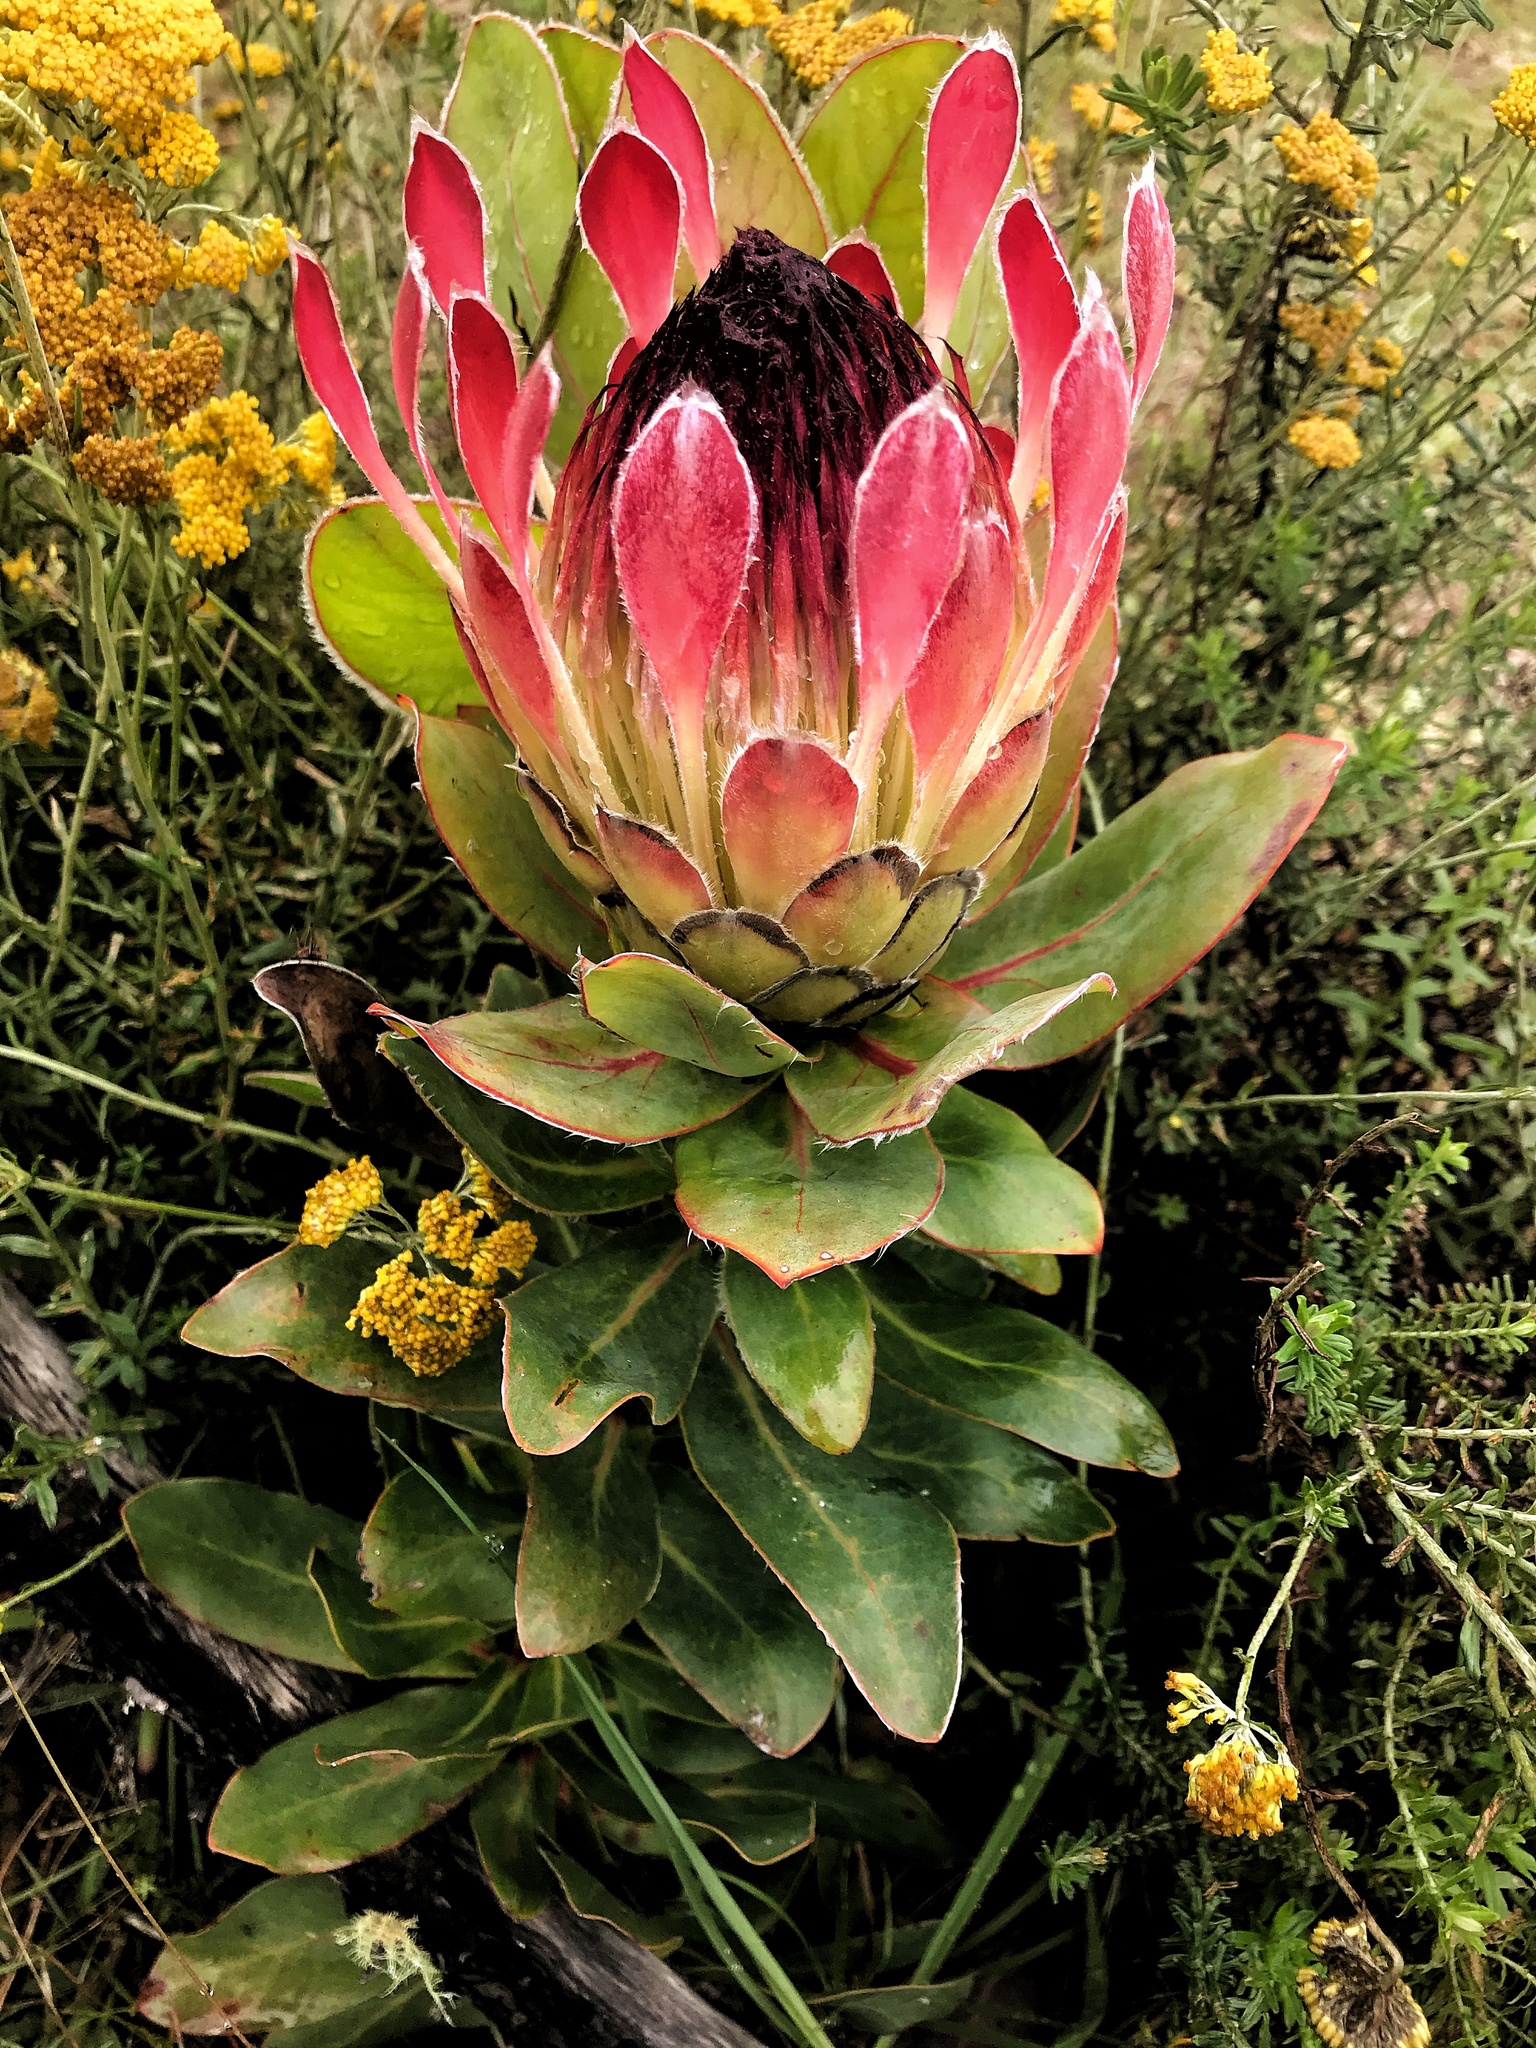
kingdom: Plantae
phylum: Tracheophyta
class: Magnoliopsida
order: Proteales
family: Proteaceae
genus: Protea
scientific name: Protea eximia
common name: Broad-leaved sugarbush
